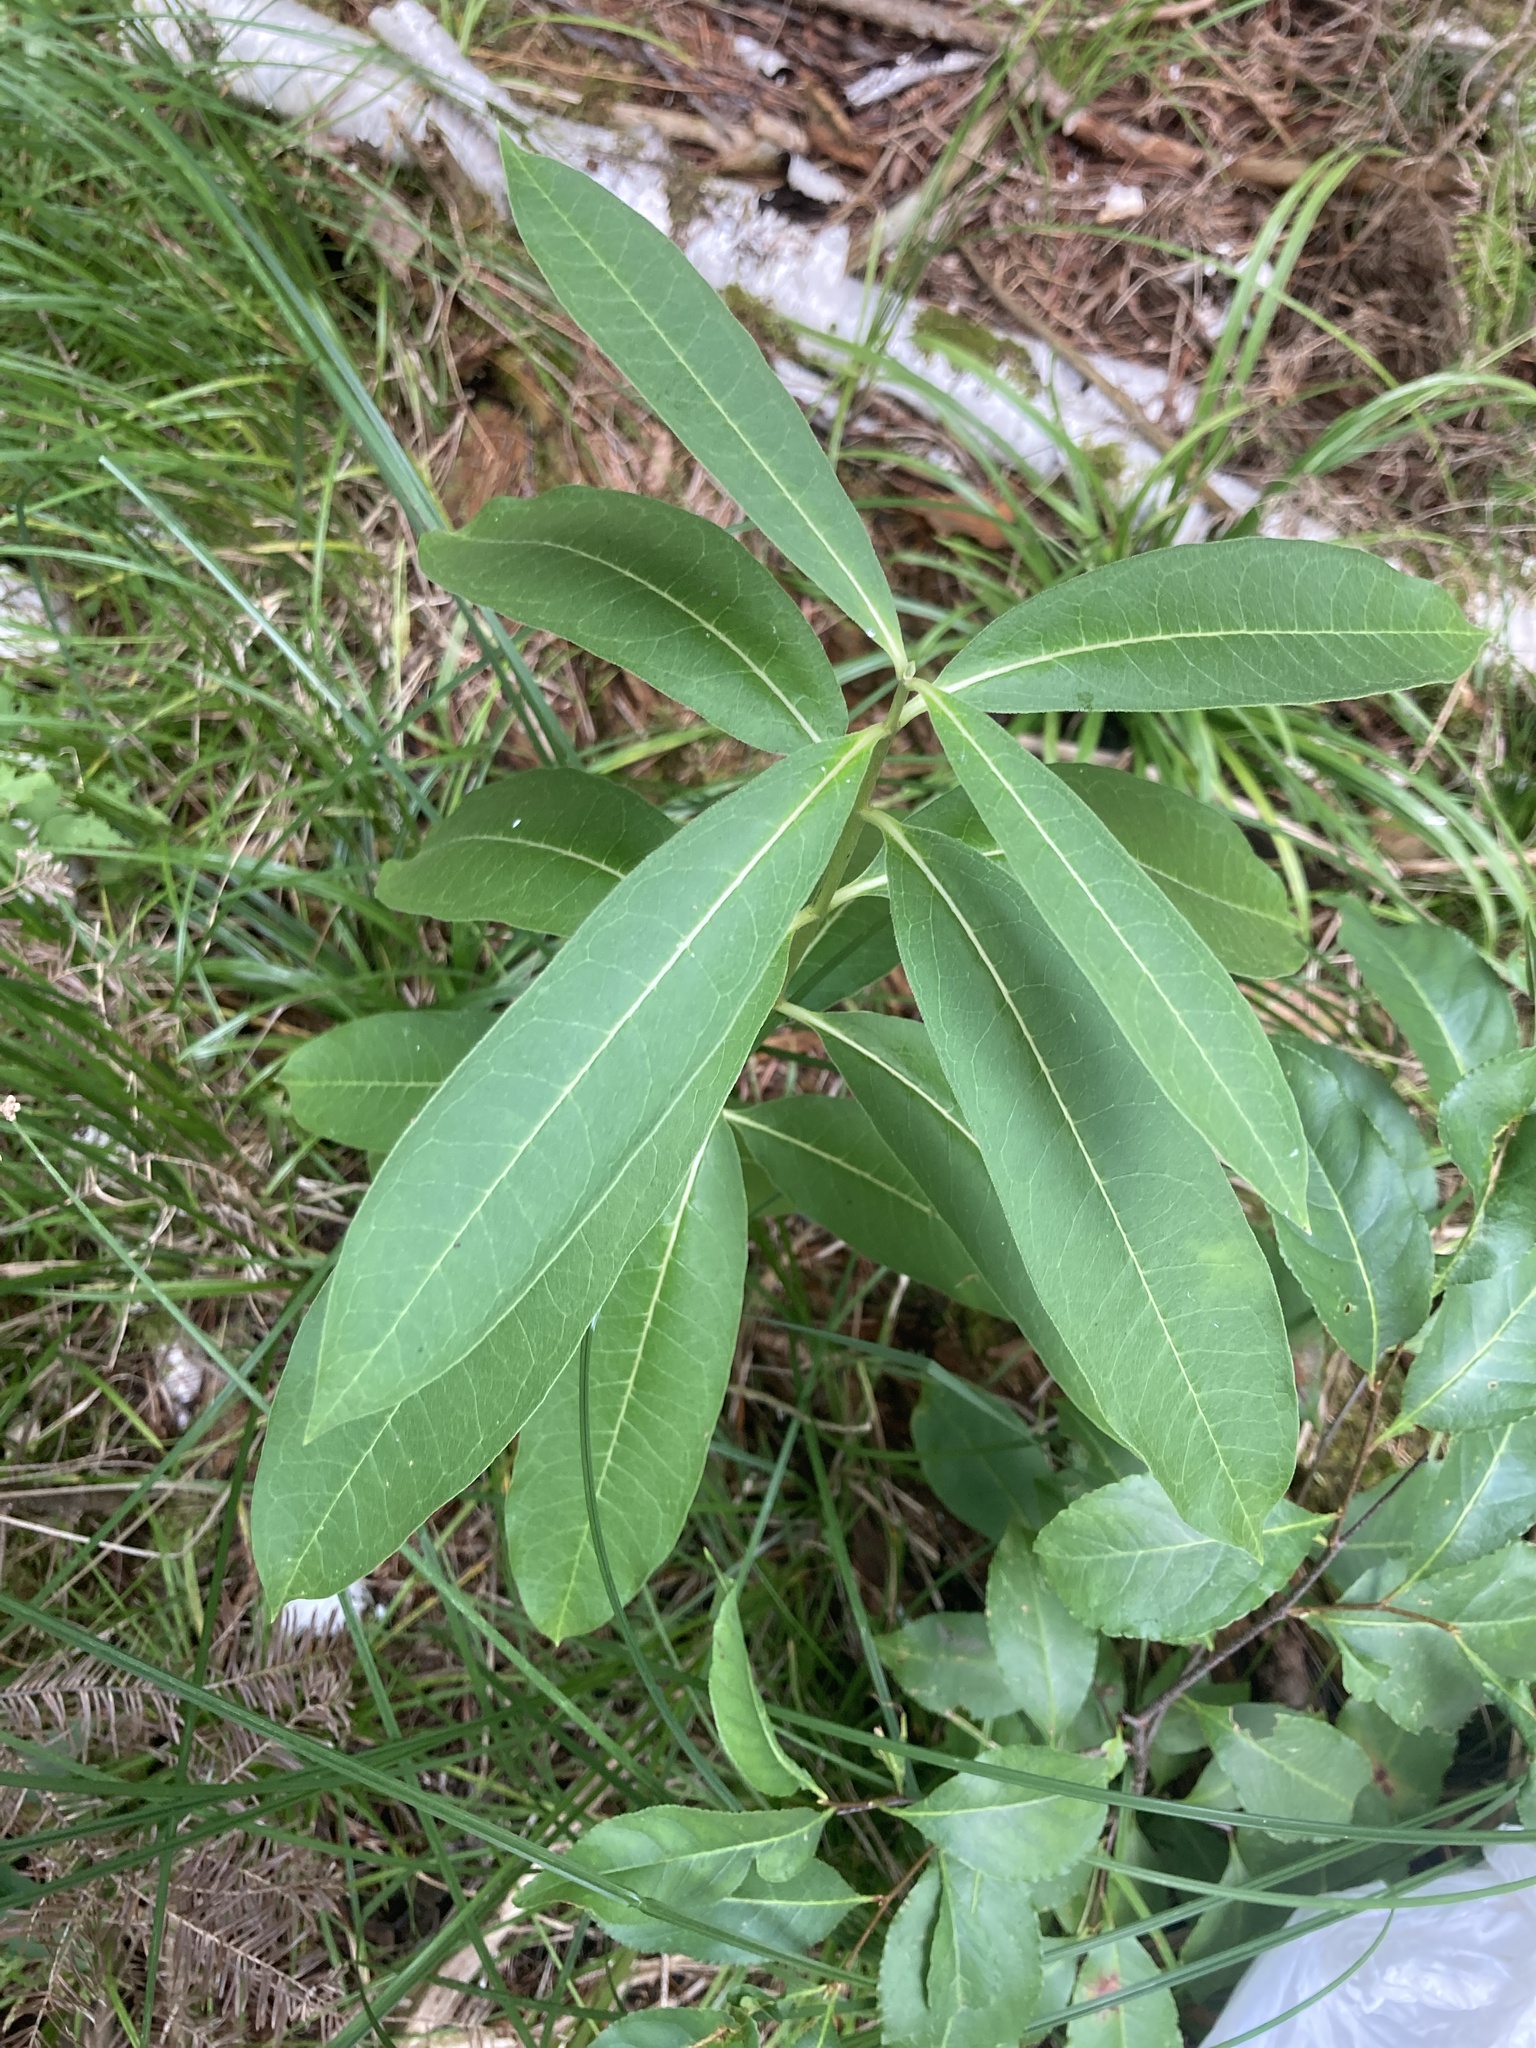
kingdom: Plantae
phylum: Tracheophyta
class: Magnoliopsida
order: Gentianales
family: Apocynaceae
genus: Asclepias
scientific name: Asclepias syriaca
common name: Common milkweed
